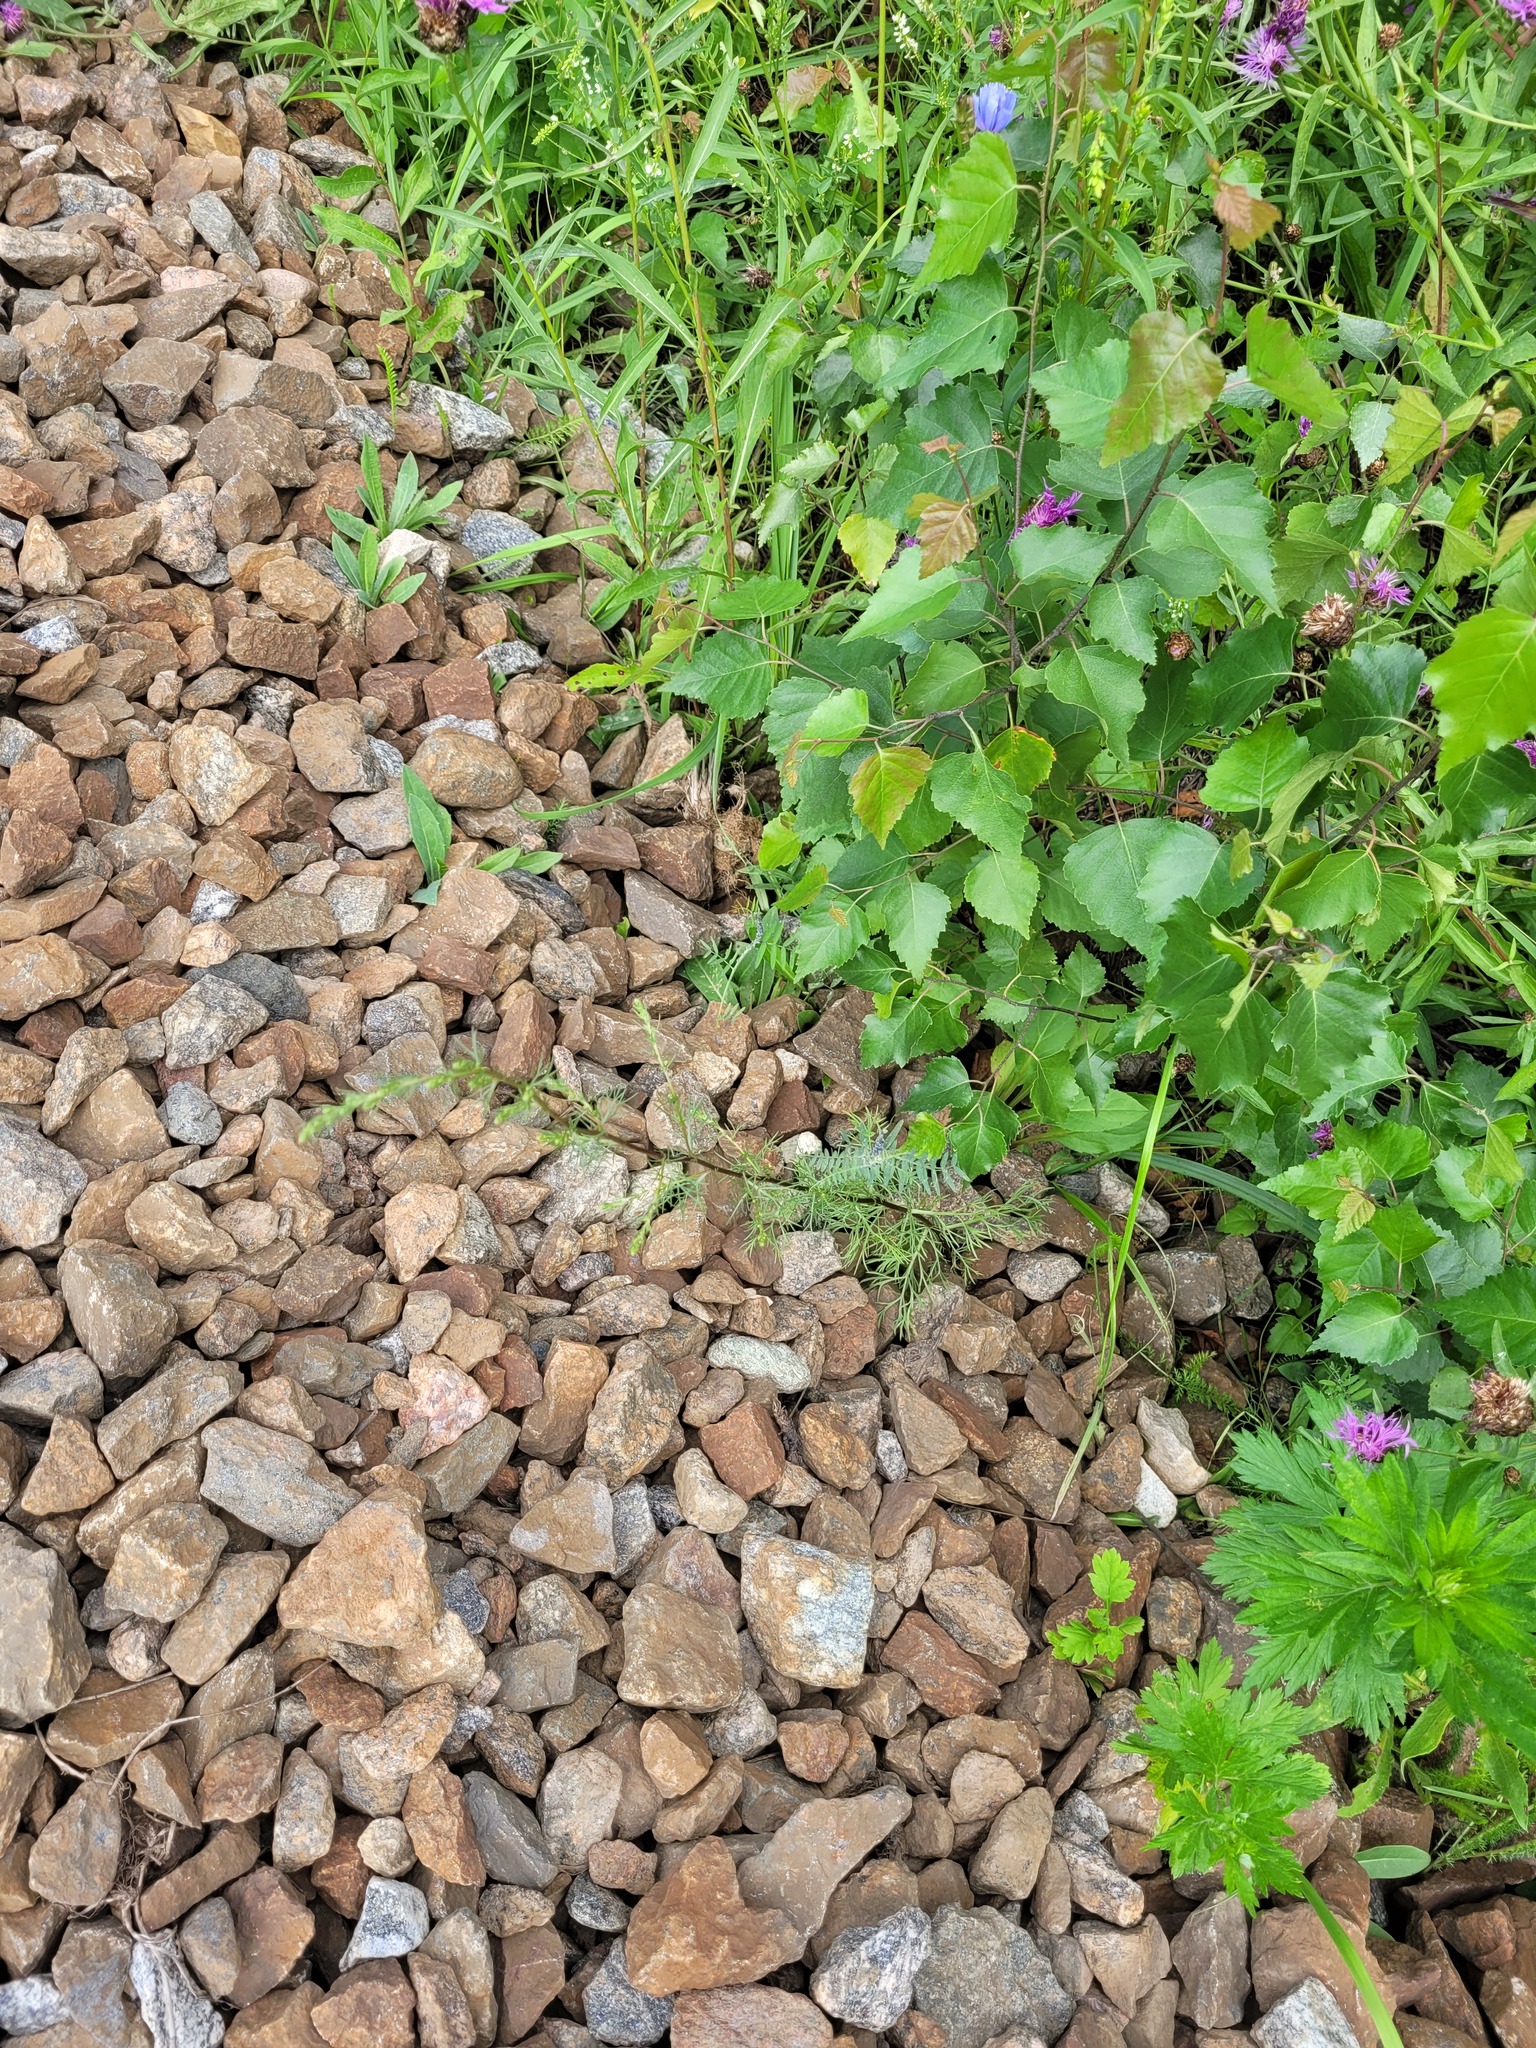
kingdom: Plantae
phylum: Tracheophyta
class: Magnoliopsida
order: Asterales
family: Asteraceae
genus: Artemisia
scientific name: Artemisia campestris
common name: Field wormwood
